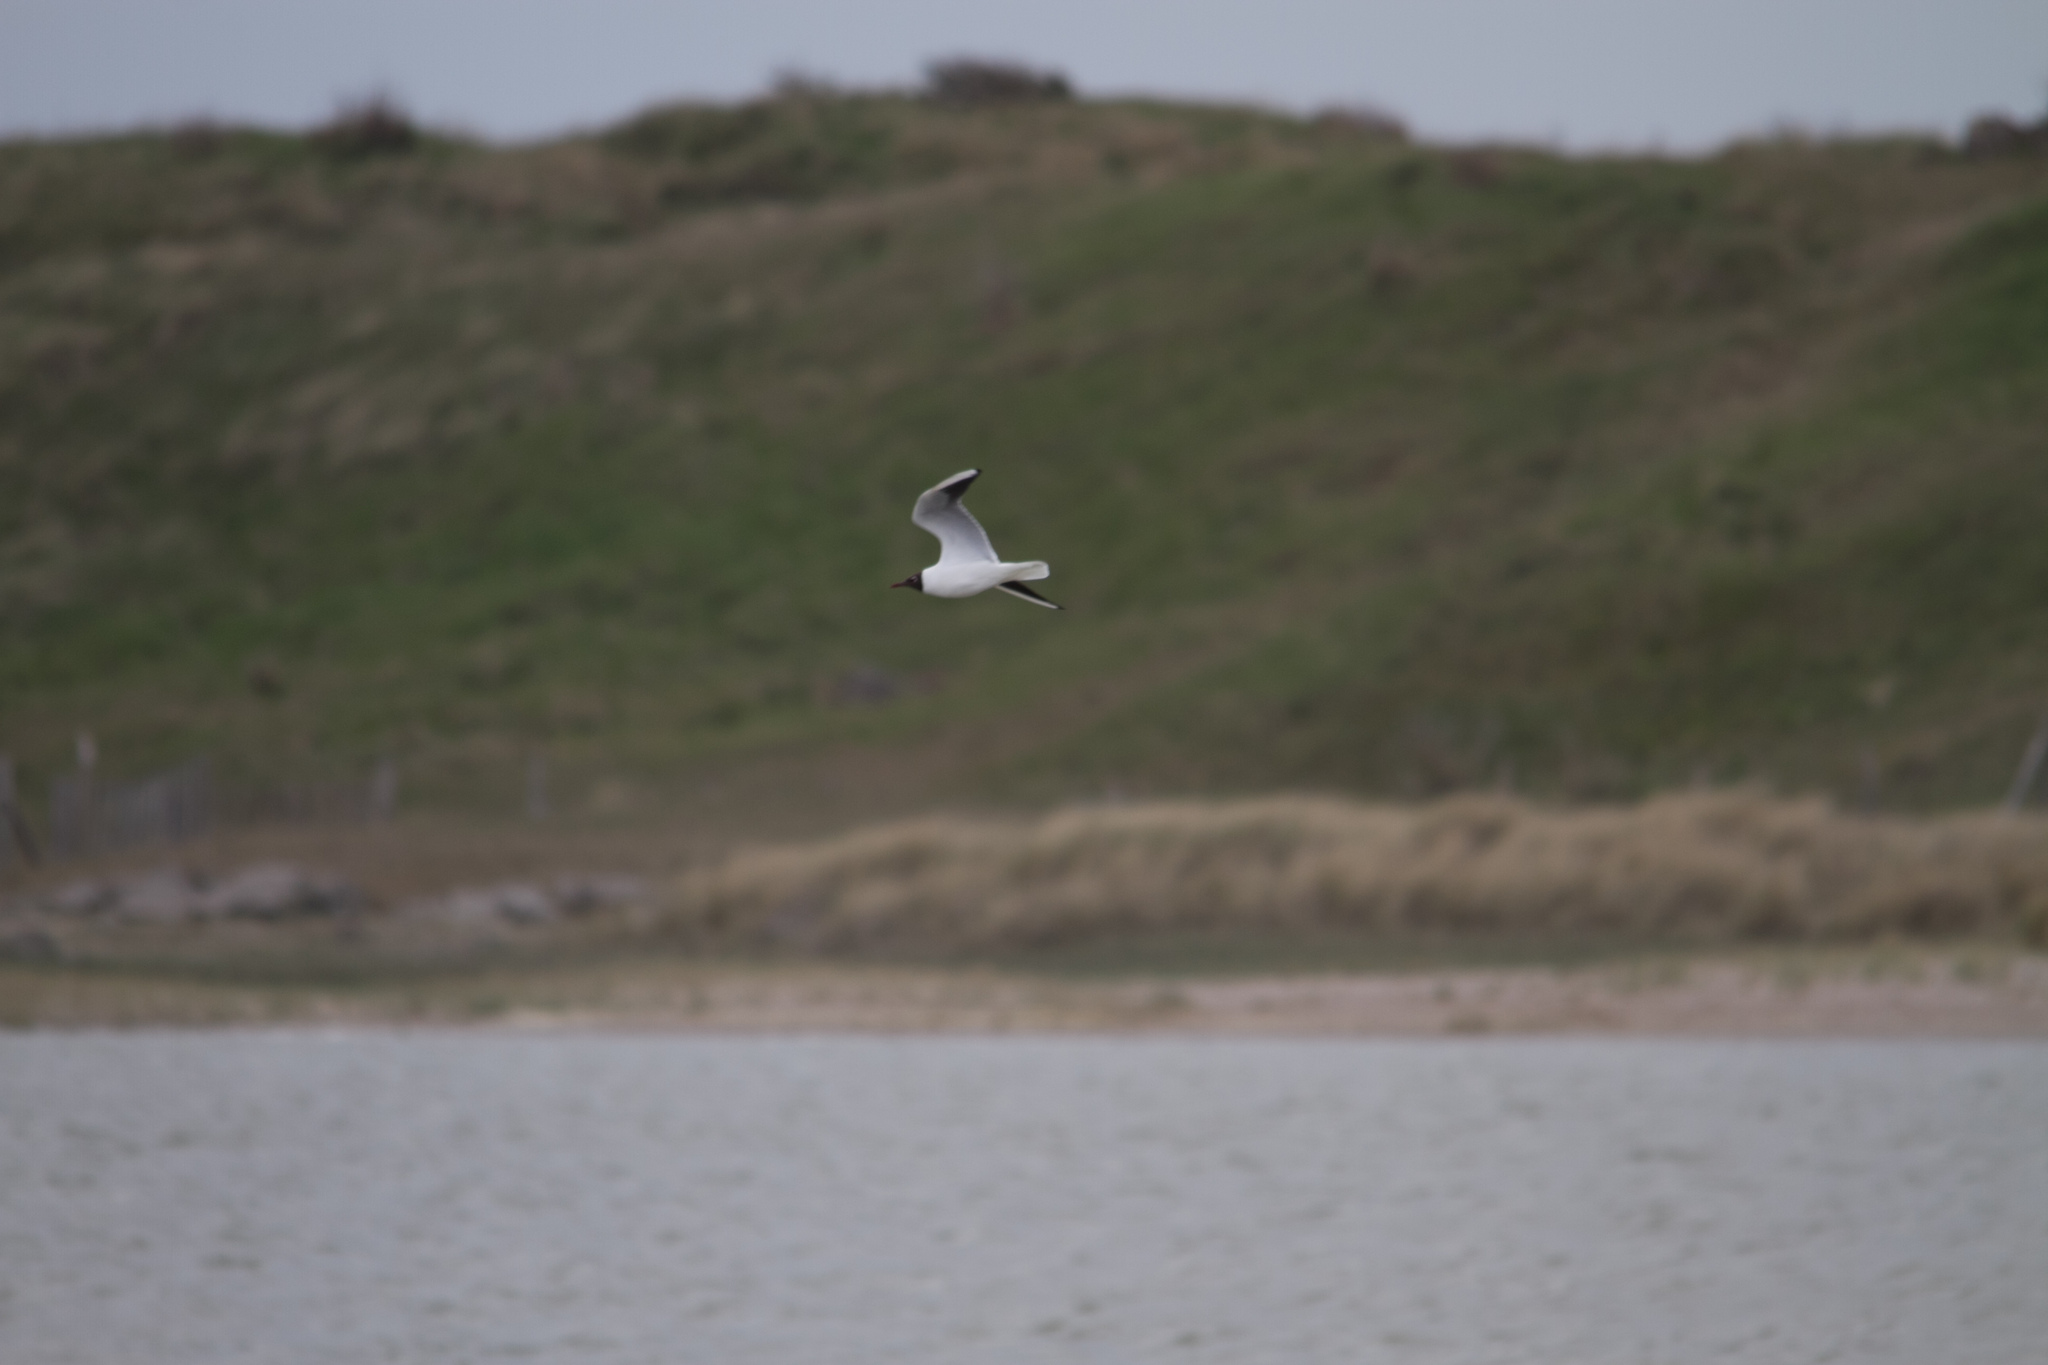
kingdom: Animalia
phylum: Chordata
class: Aves
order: Charadriiformes
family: Laridae
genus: Chroicocephalus
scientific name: Chroicocephalus ridibundus
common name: Black-headed gull
